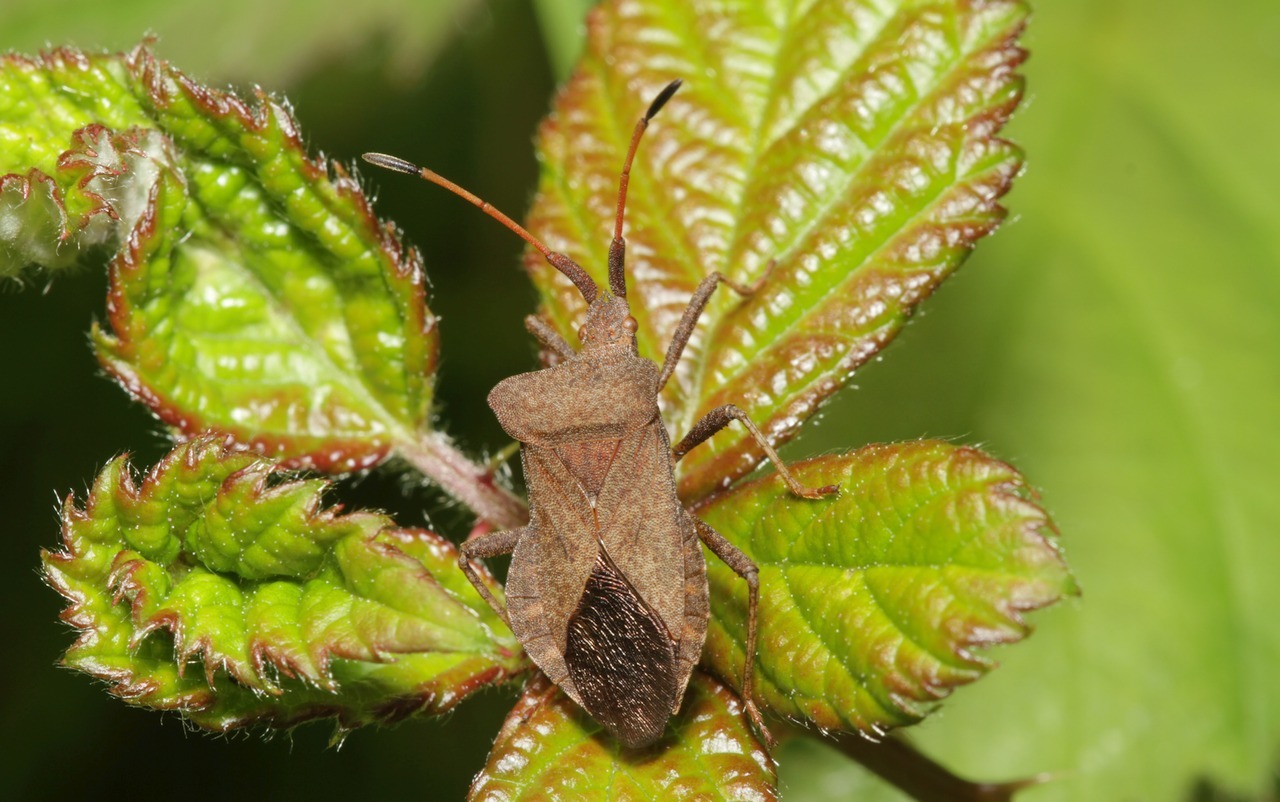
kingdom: Animalia
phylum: Arthropoda
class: Insecta
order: Hemiptera
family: Coreidae
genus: Coreus
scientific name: Coreus marginatus
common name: Dock bug
